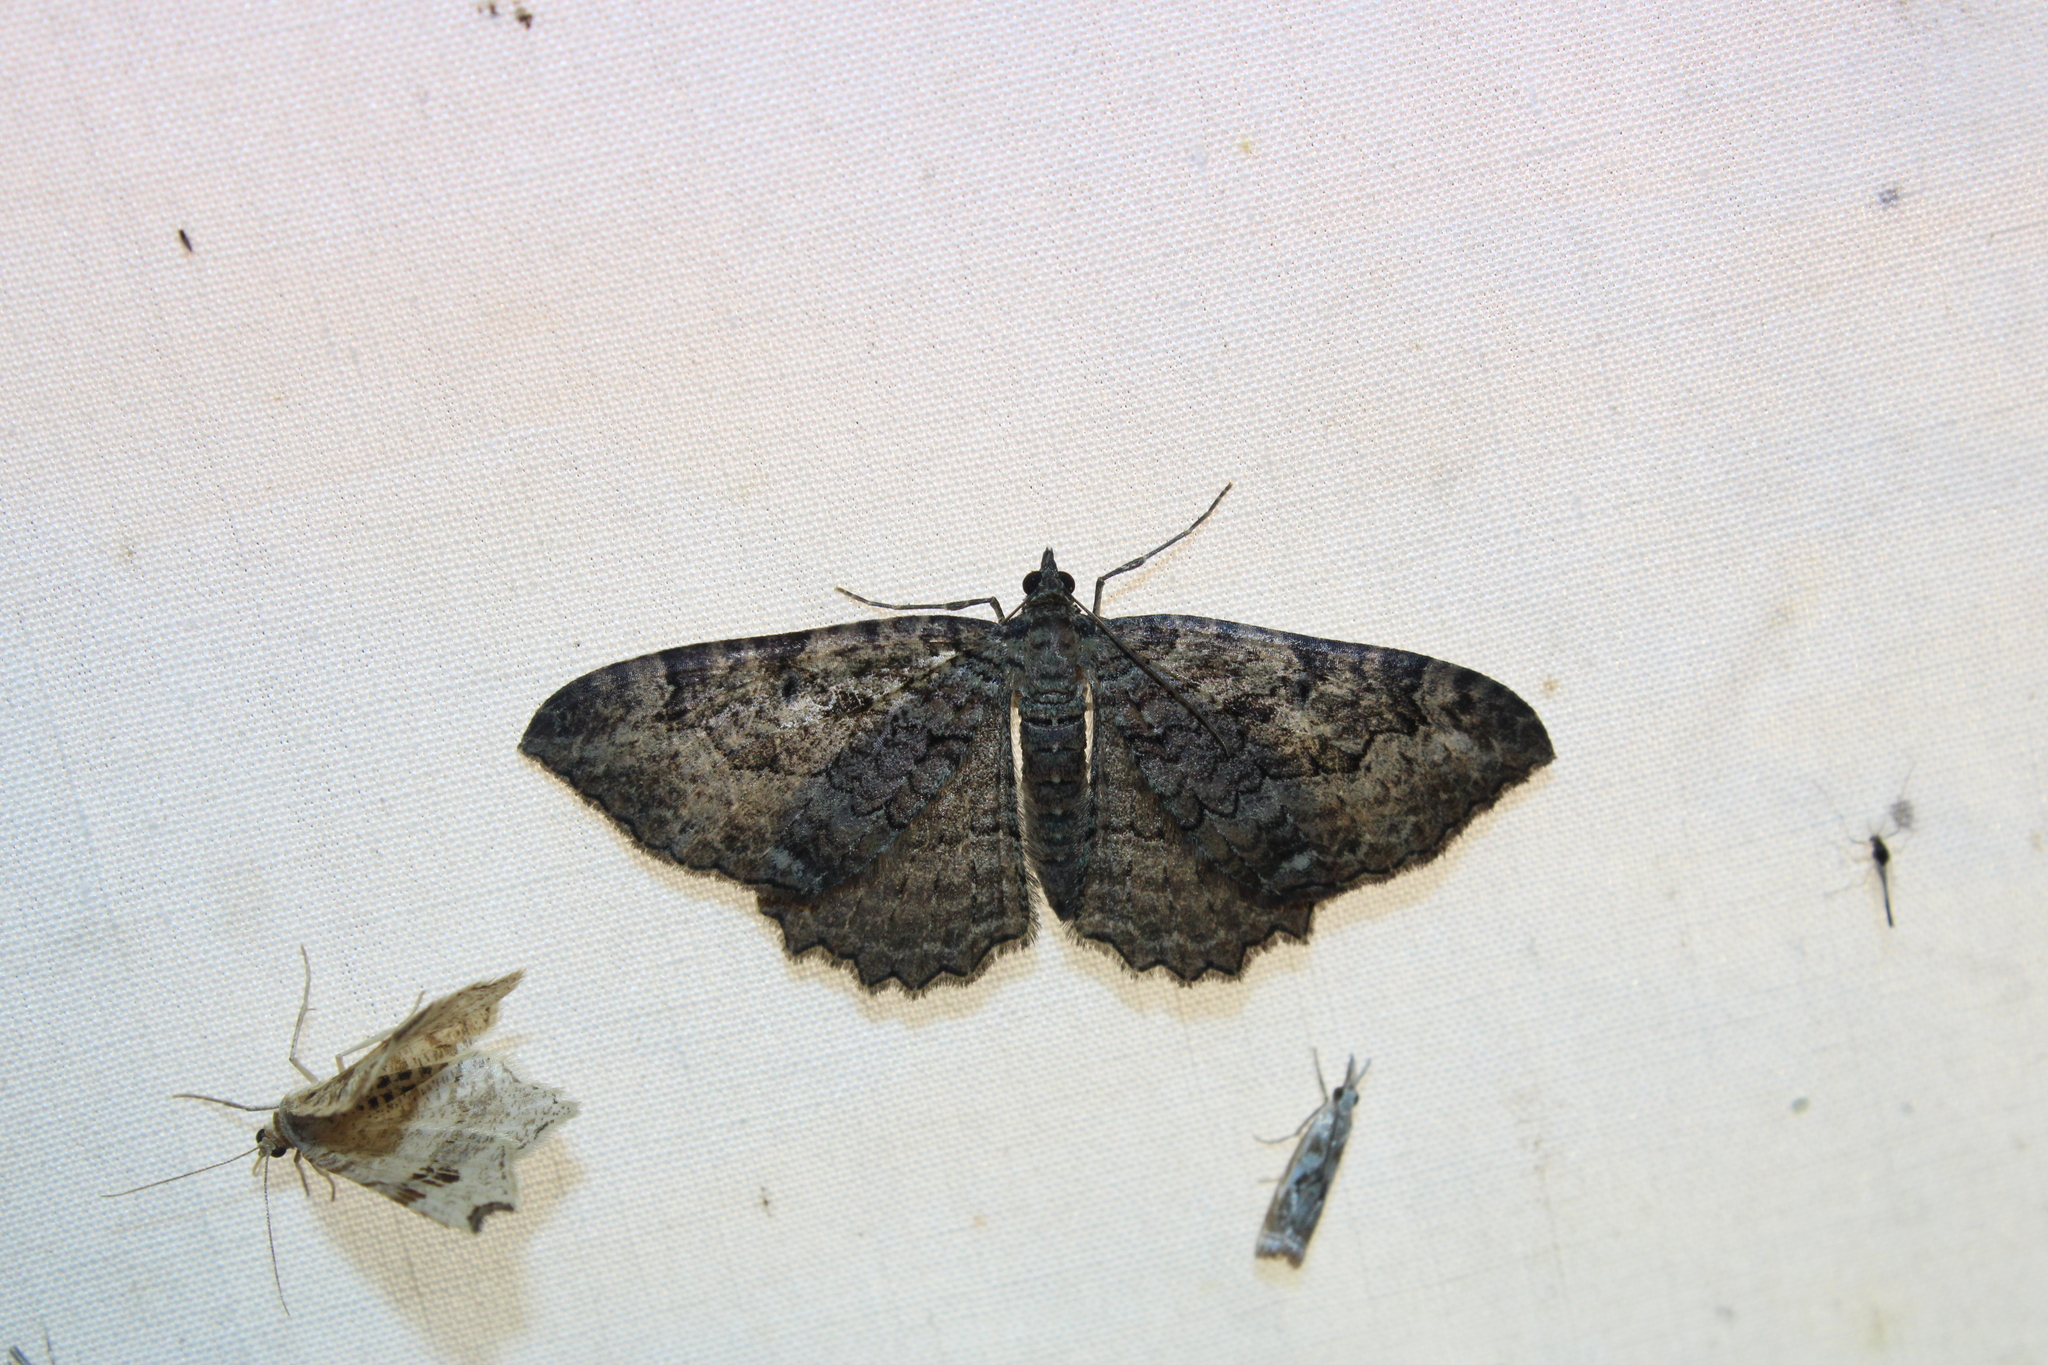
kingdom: Animalia
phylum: Arthropoda
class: Insecta
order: Lepidoptera
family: Geometridae
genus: Rheumaptera
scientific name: Rheumaptera
